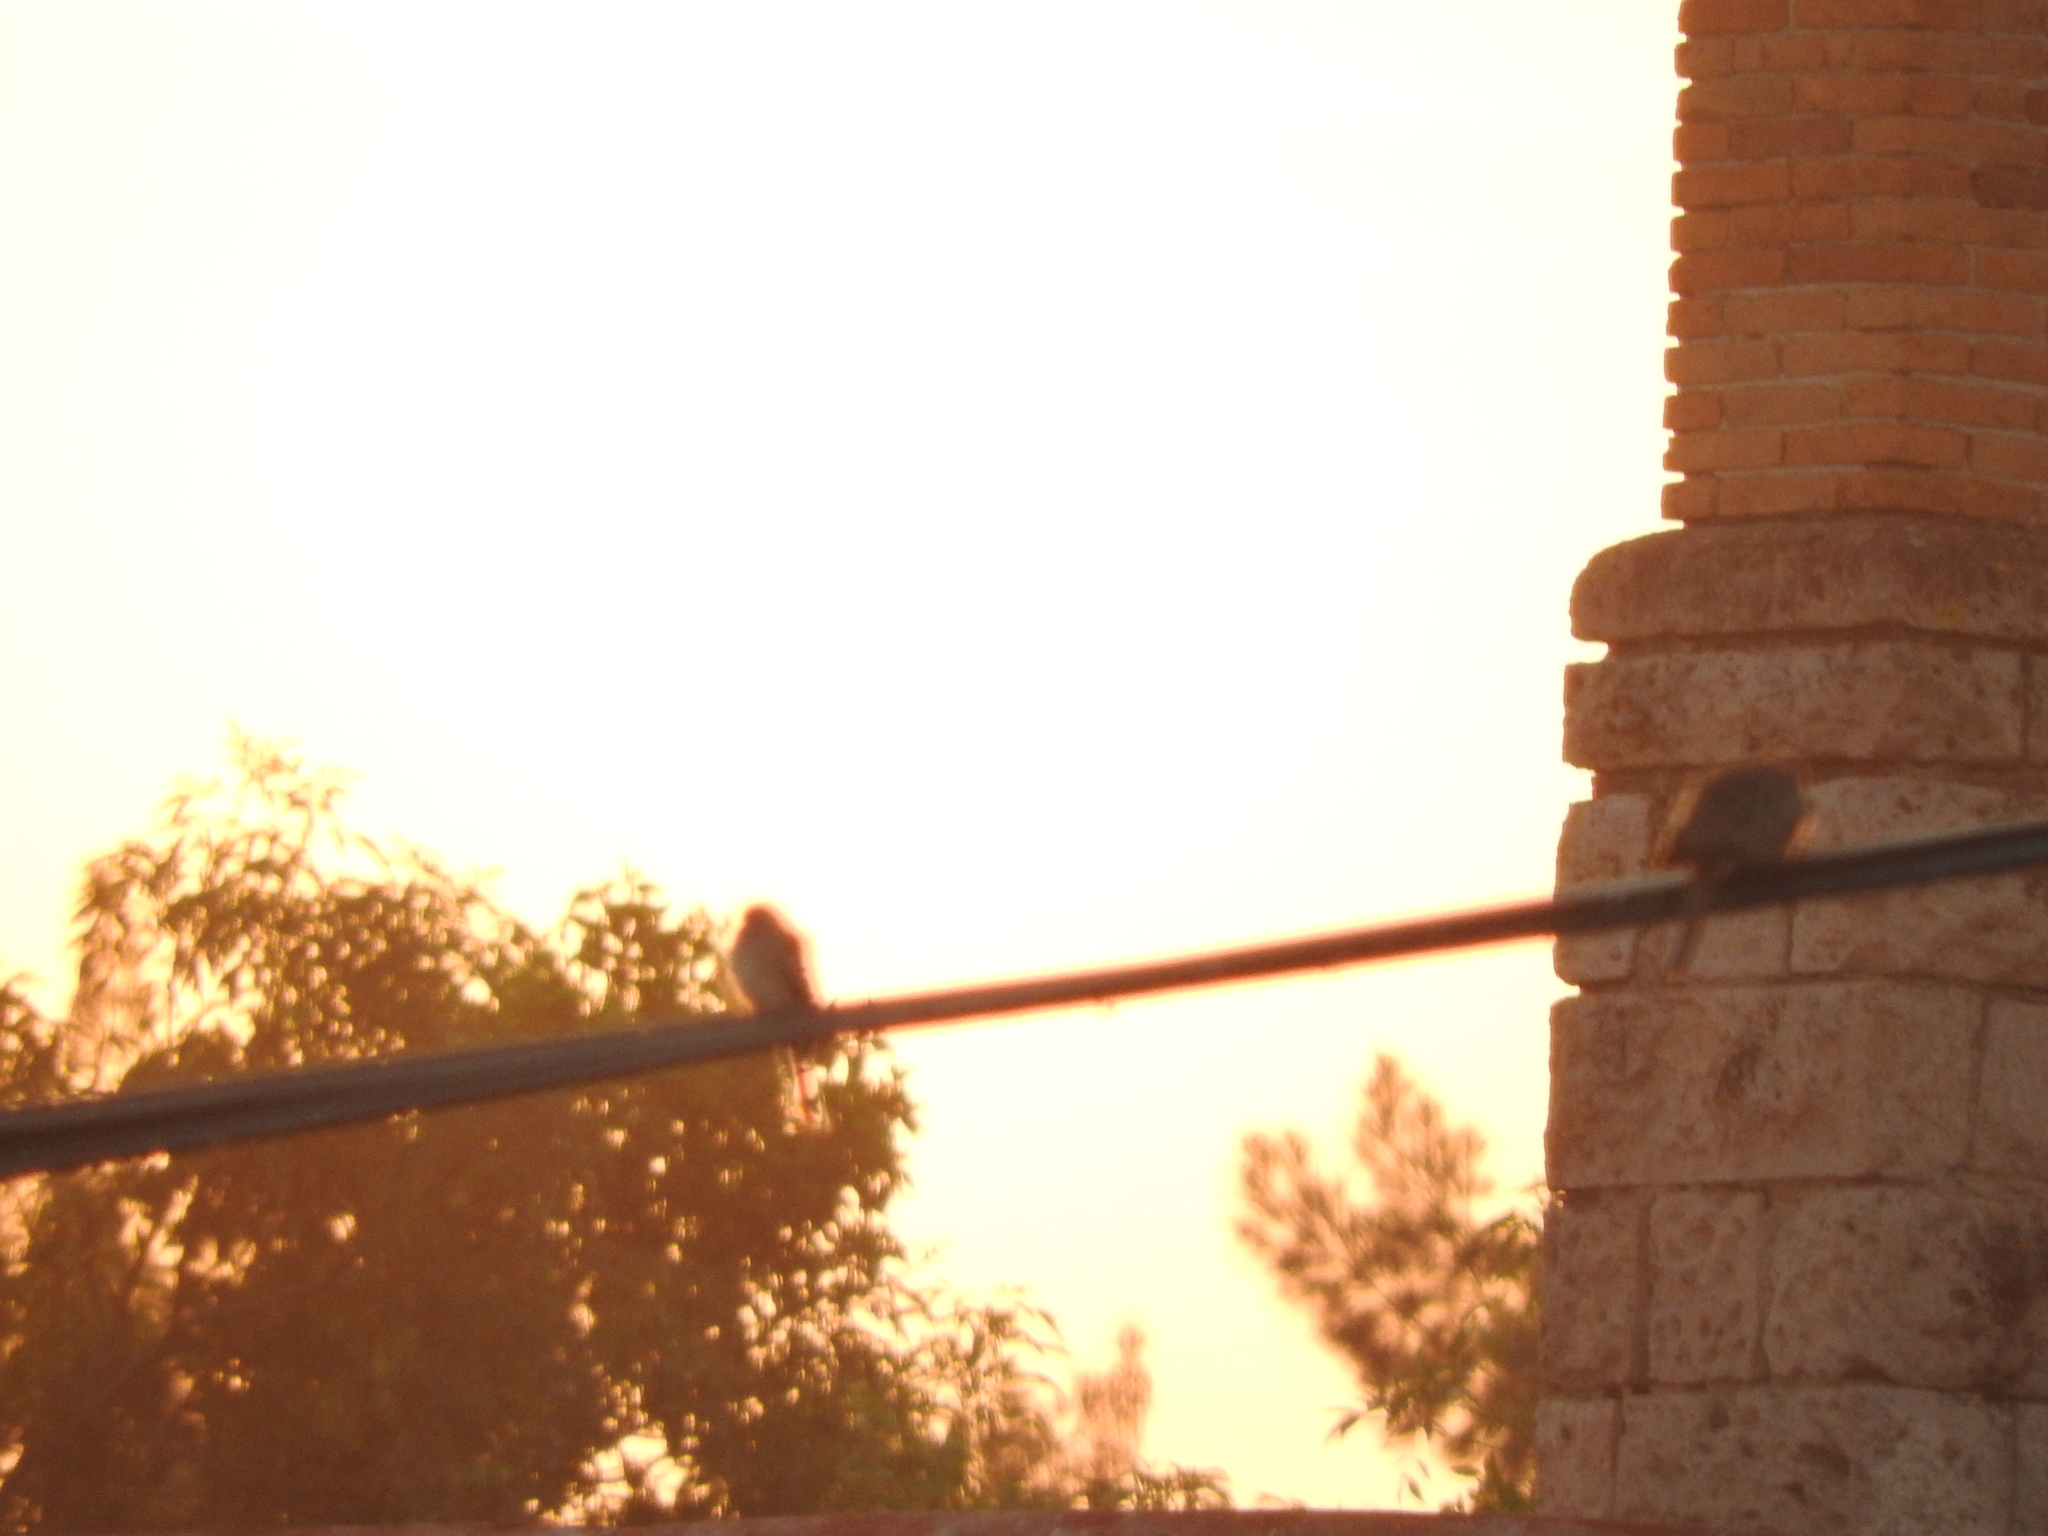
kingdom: Animalia
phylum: Chordata
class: Aves
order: Columbiformes
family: Columbidae
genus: Columbina
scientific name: Columbina inca
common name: Inca dove
